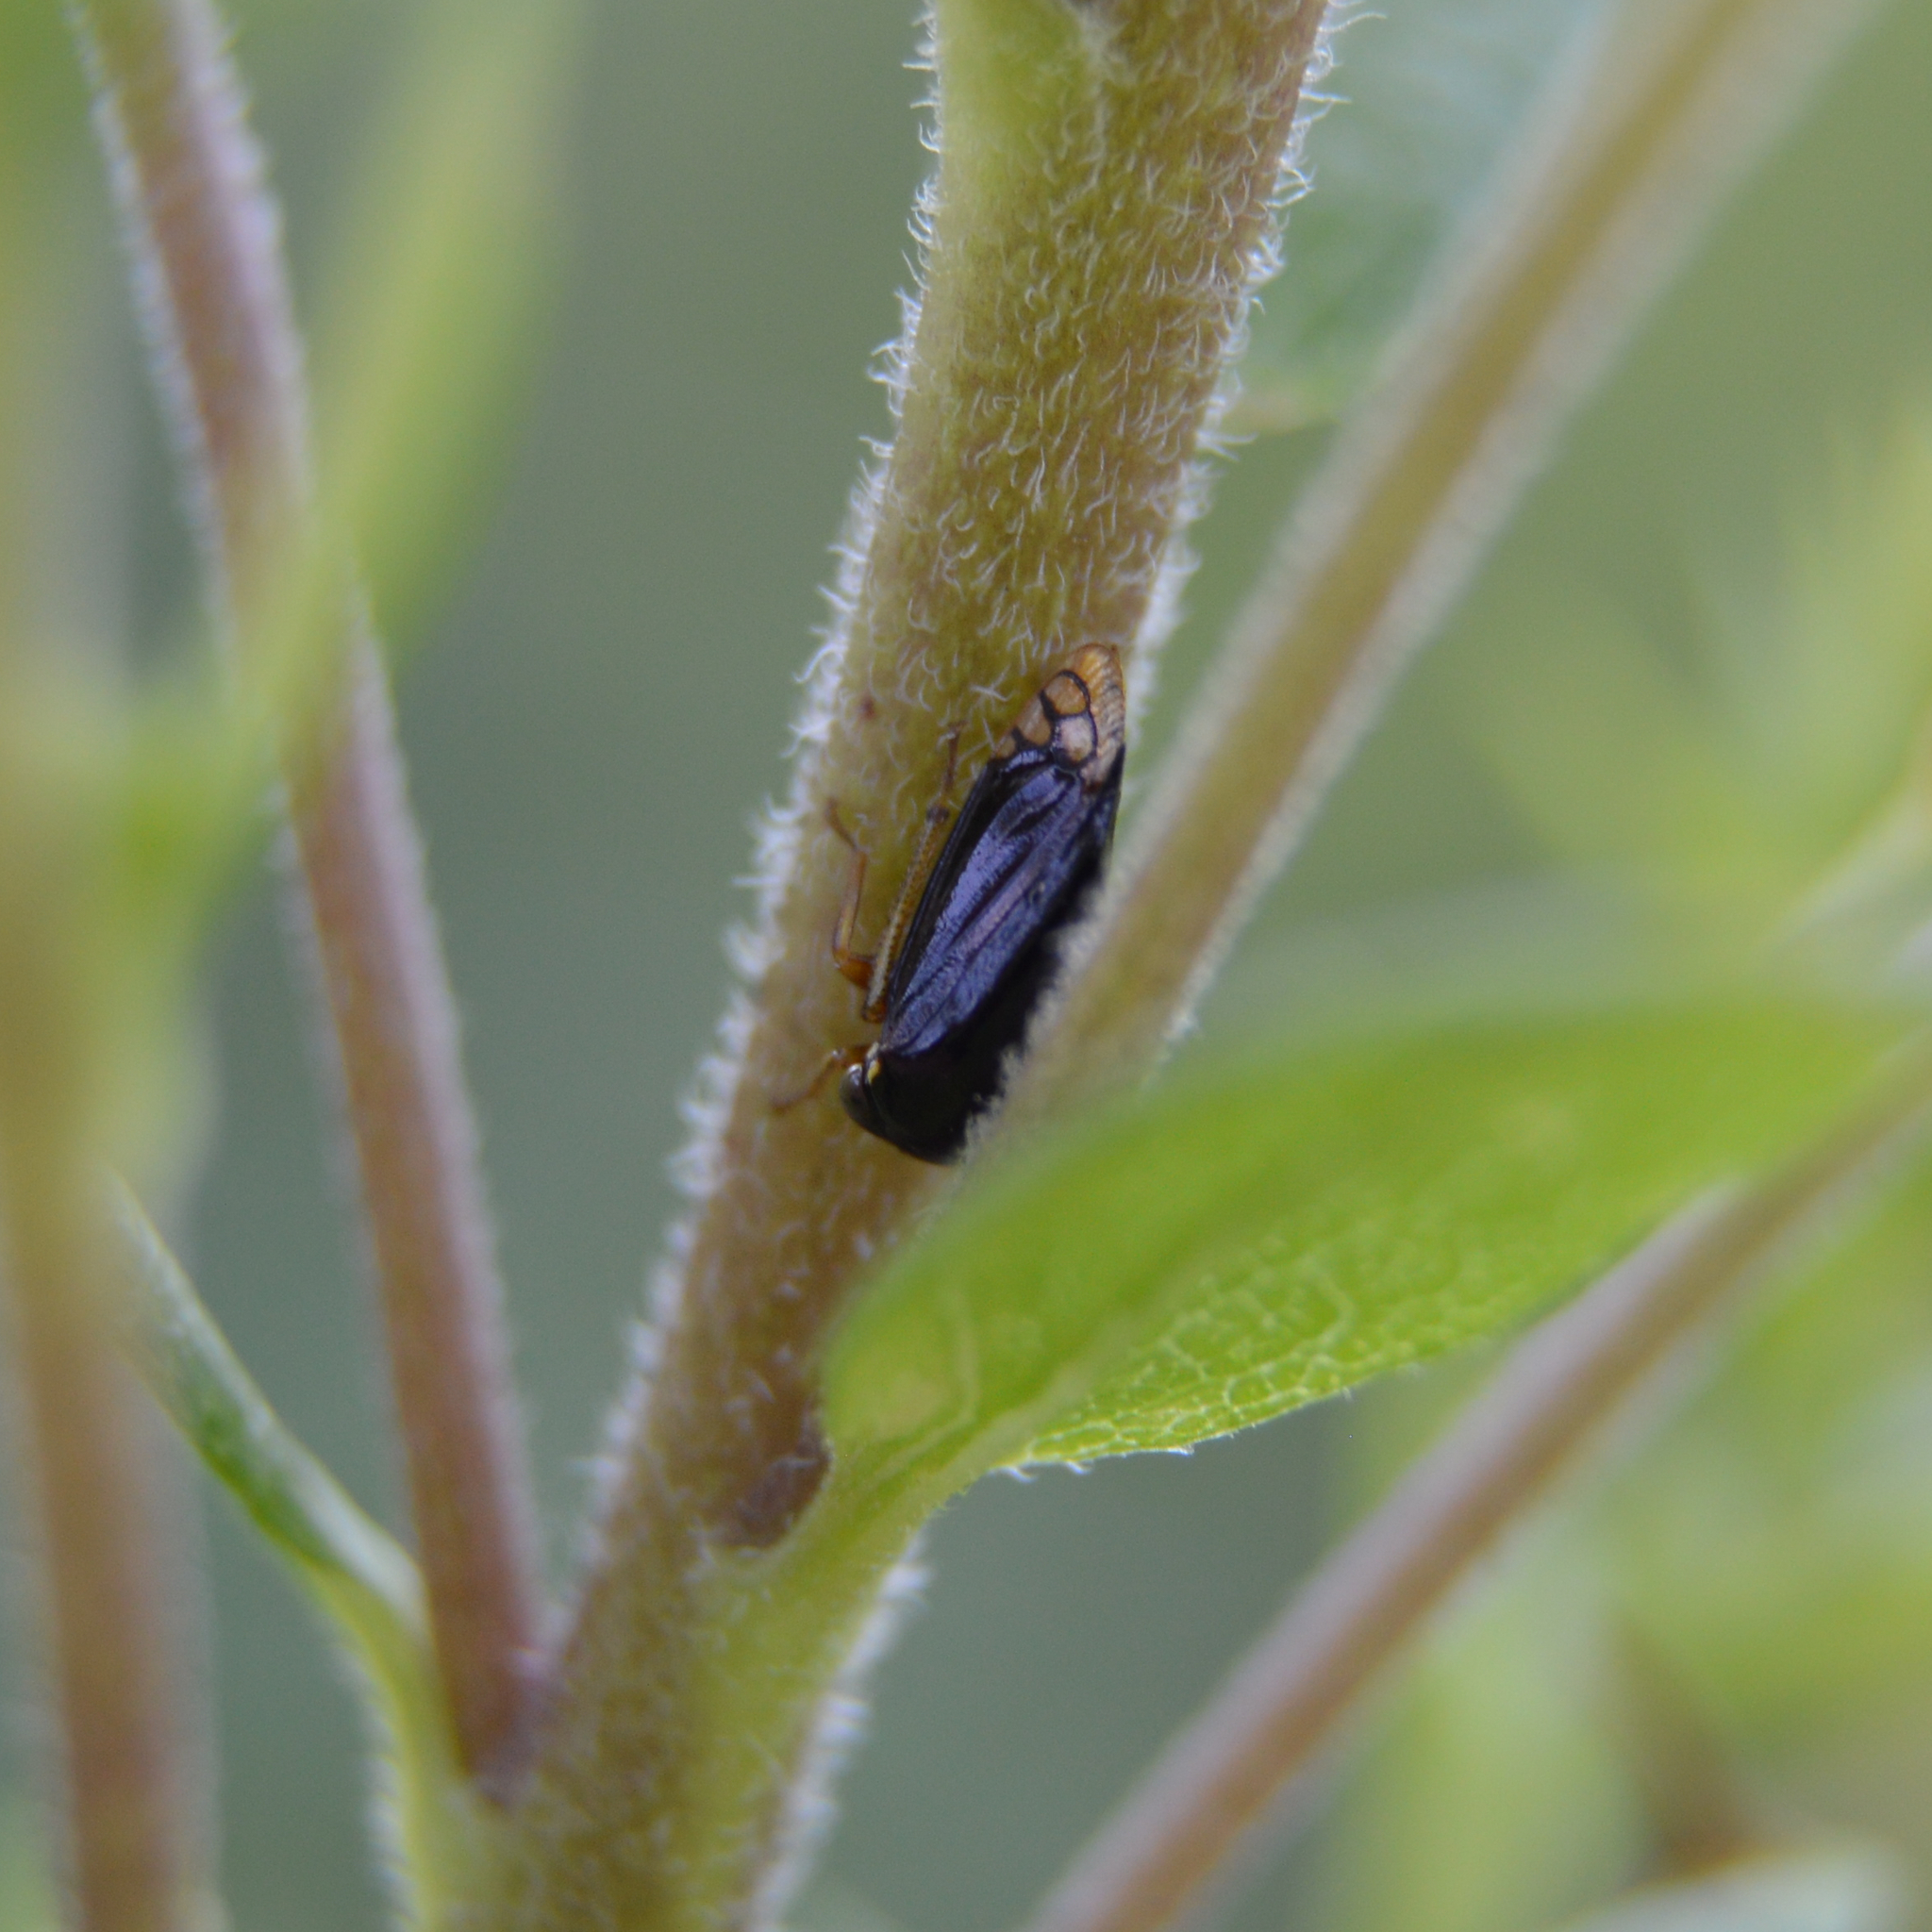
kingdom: Animalia
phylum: Arthropoda
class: Insecta
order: Hemiptera
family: Membracidae
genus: Acutalis
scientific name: Acutalis tartarea
